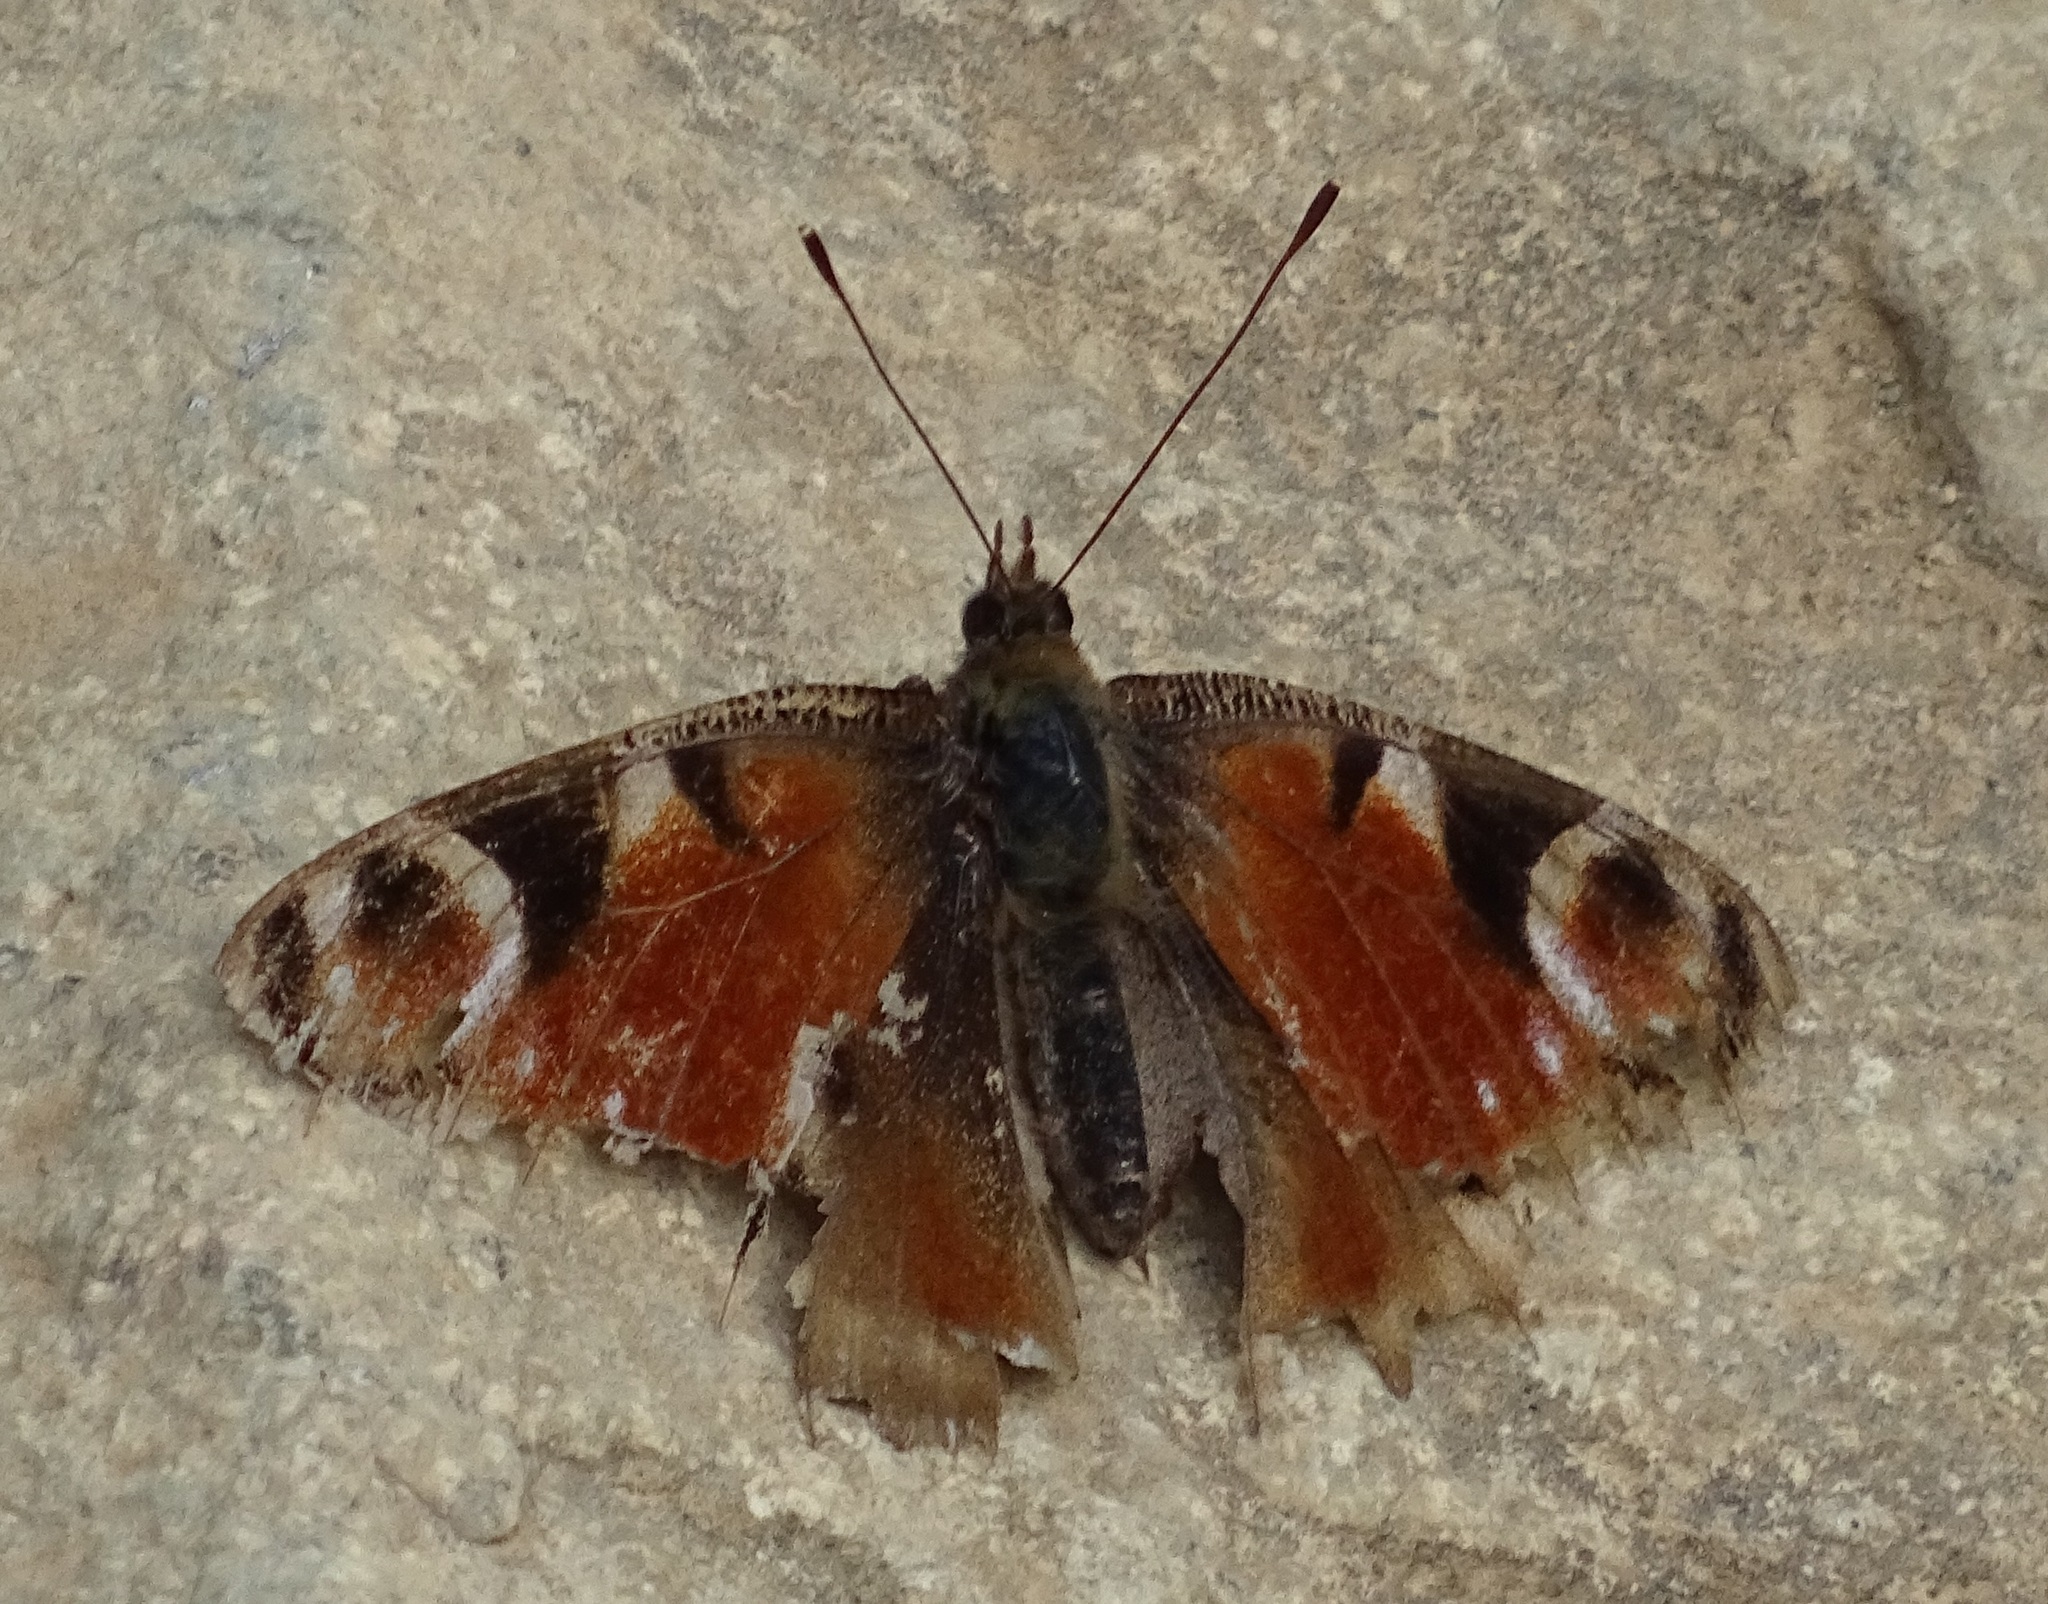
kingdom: Animalia
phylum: Arthropoda
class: Insecta
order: Lepidoptera
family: Nymphalidae
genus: Aglais
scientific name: Aglais io
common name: Peacock
